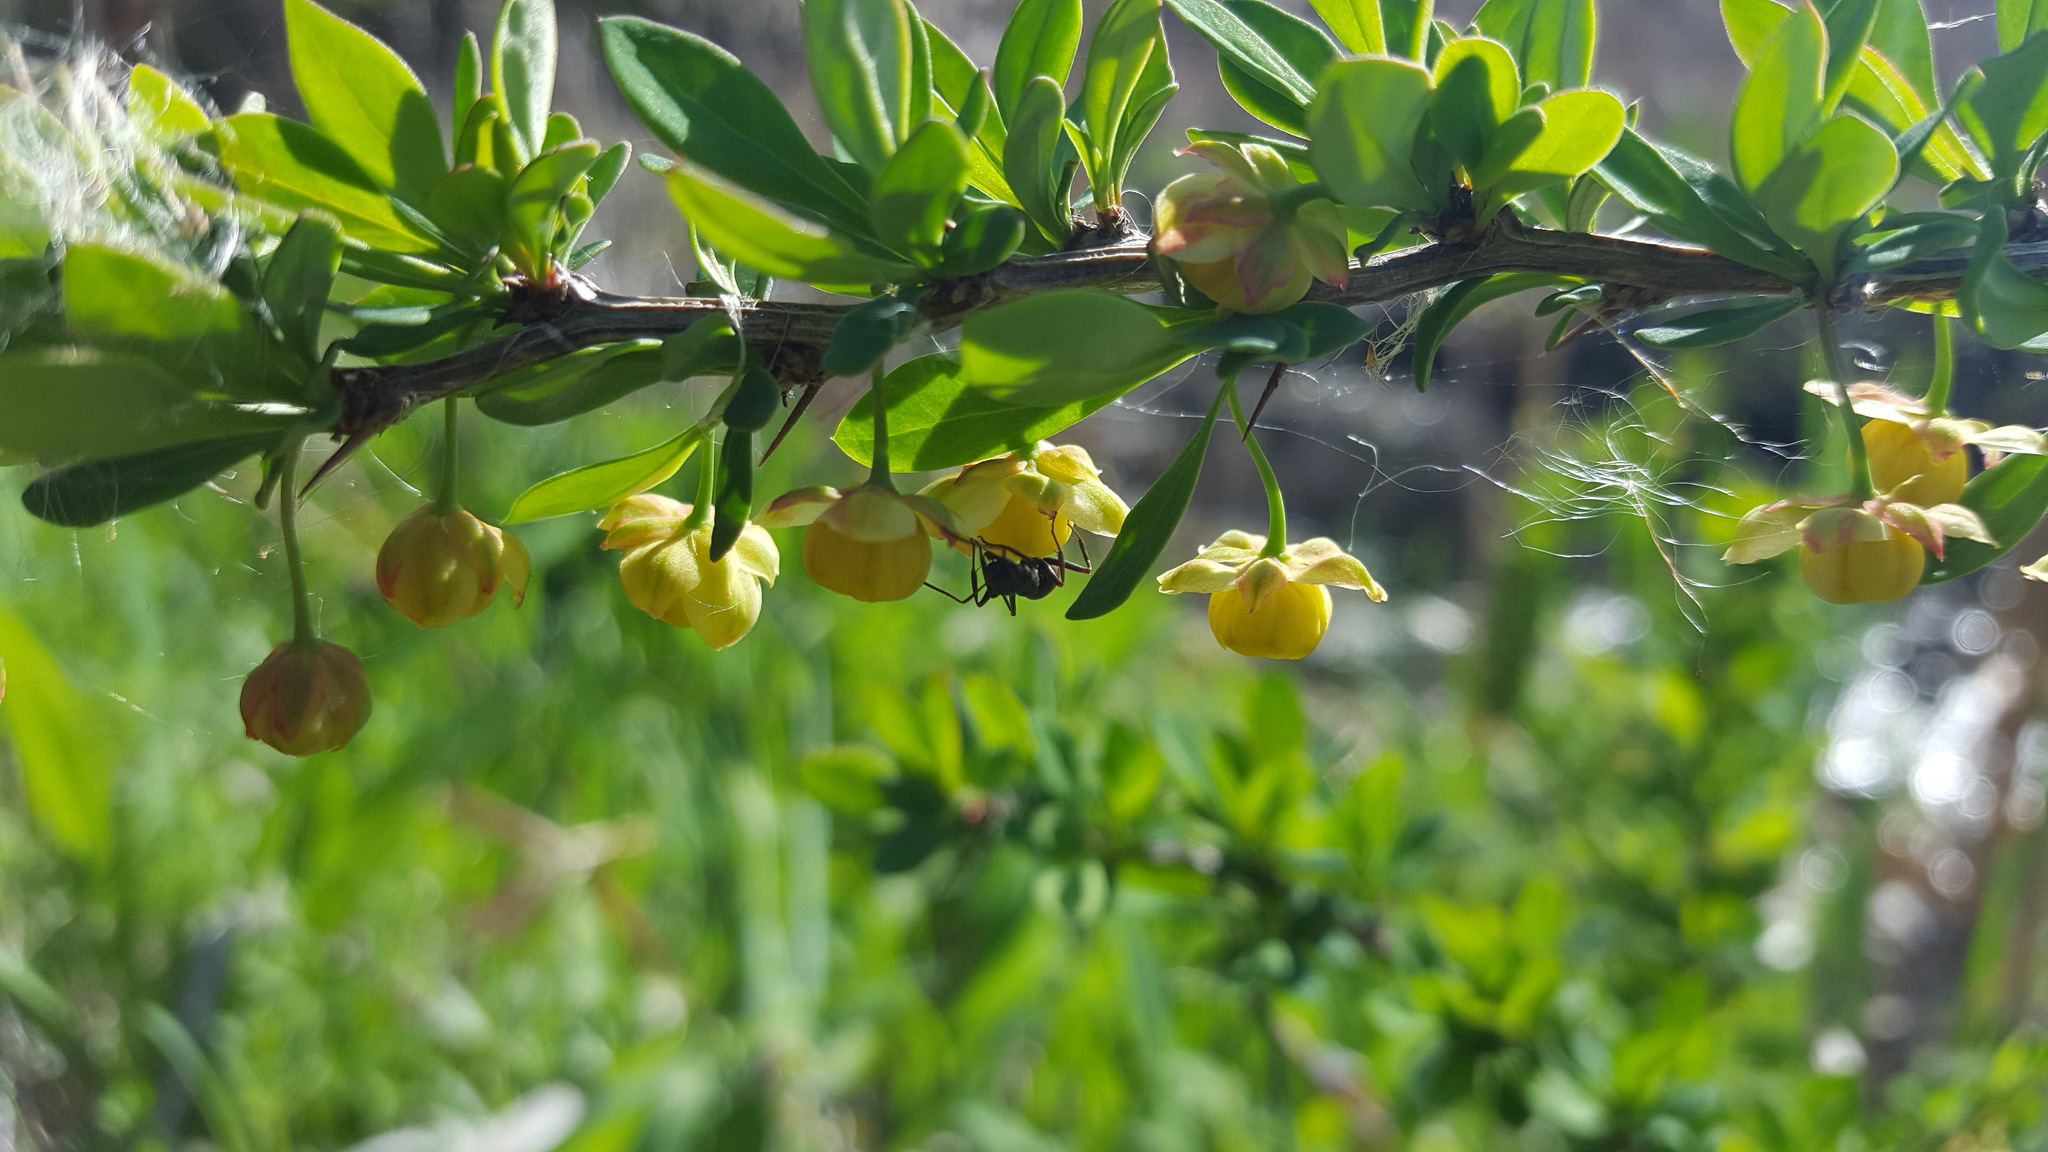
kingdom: Plantae
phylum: Tracheophyta
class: Magnoliopsida
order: Ranunculales
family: Berberidaceae
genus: Berberis
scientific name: Berberis thunbergii
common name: Japanese barberry
